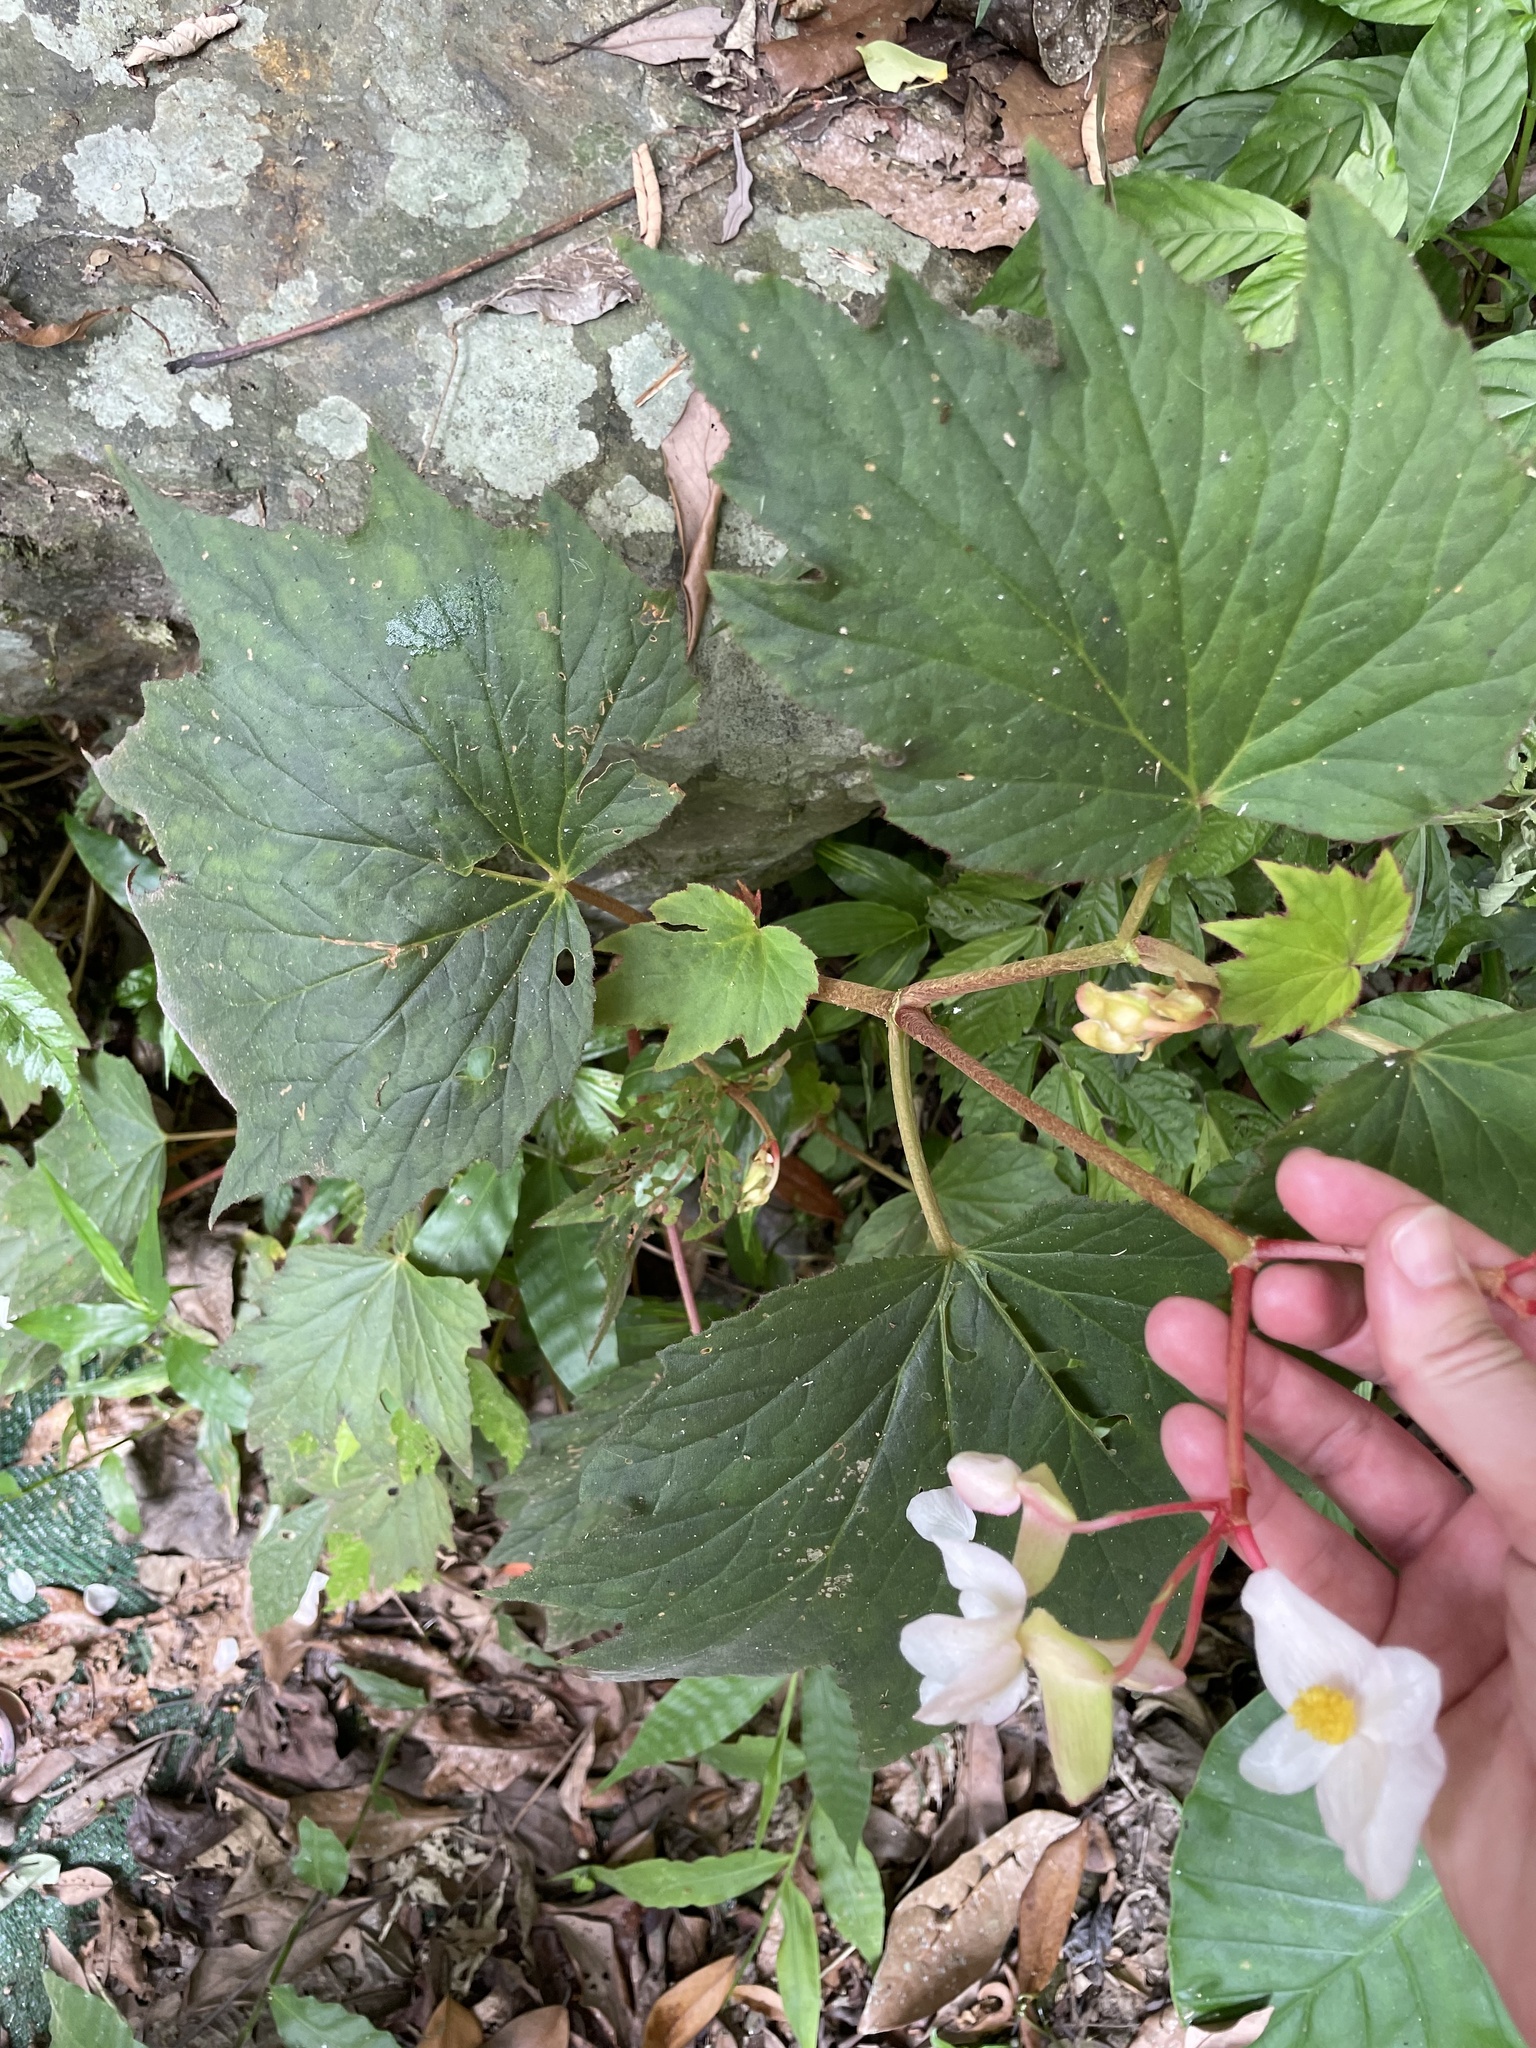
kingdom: Plantae
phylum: Tracheophyta
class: Magnoliopsida
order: Cucurbitales
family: Begoniaceae
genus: Begonia
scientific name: Begonia palmata
